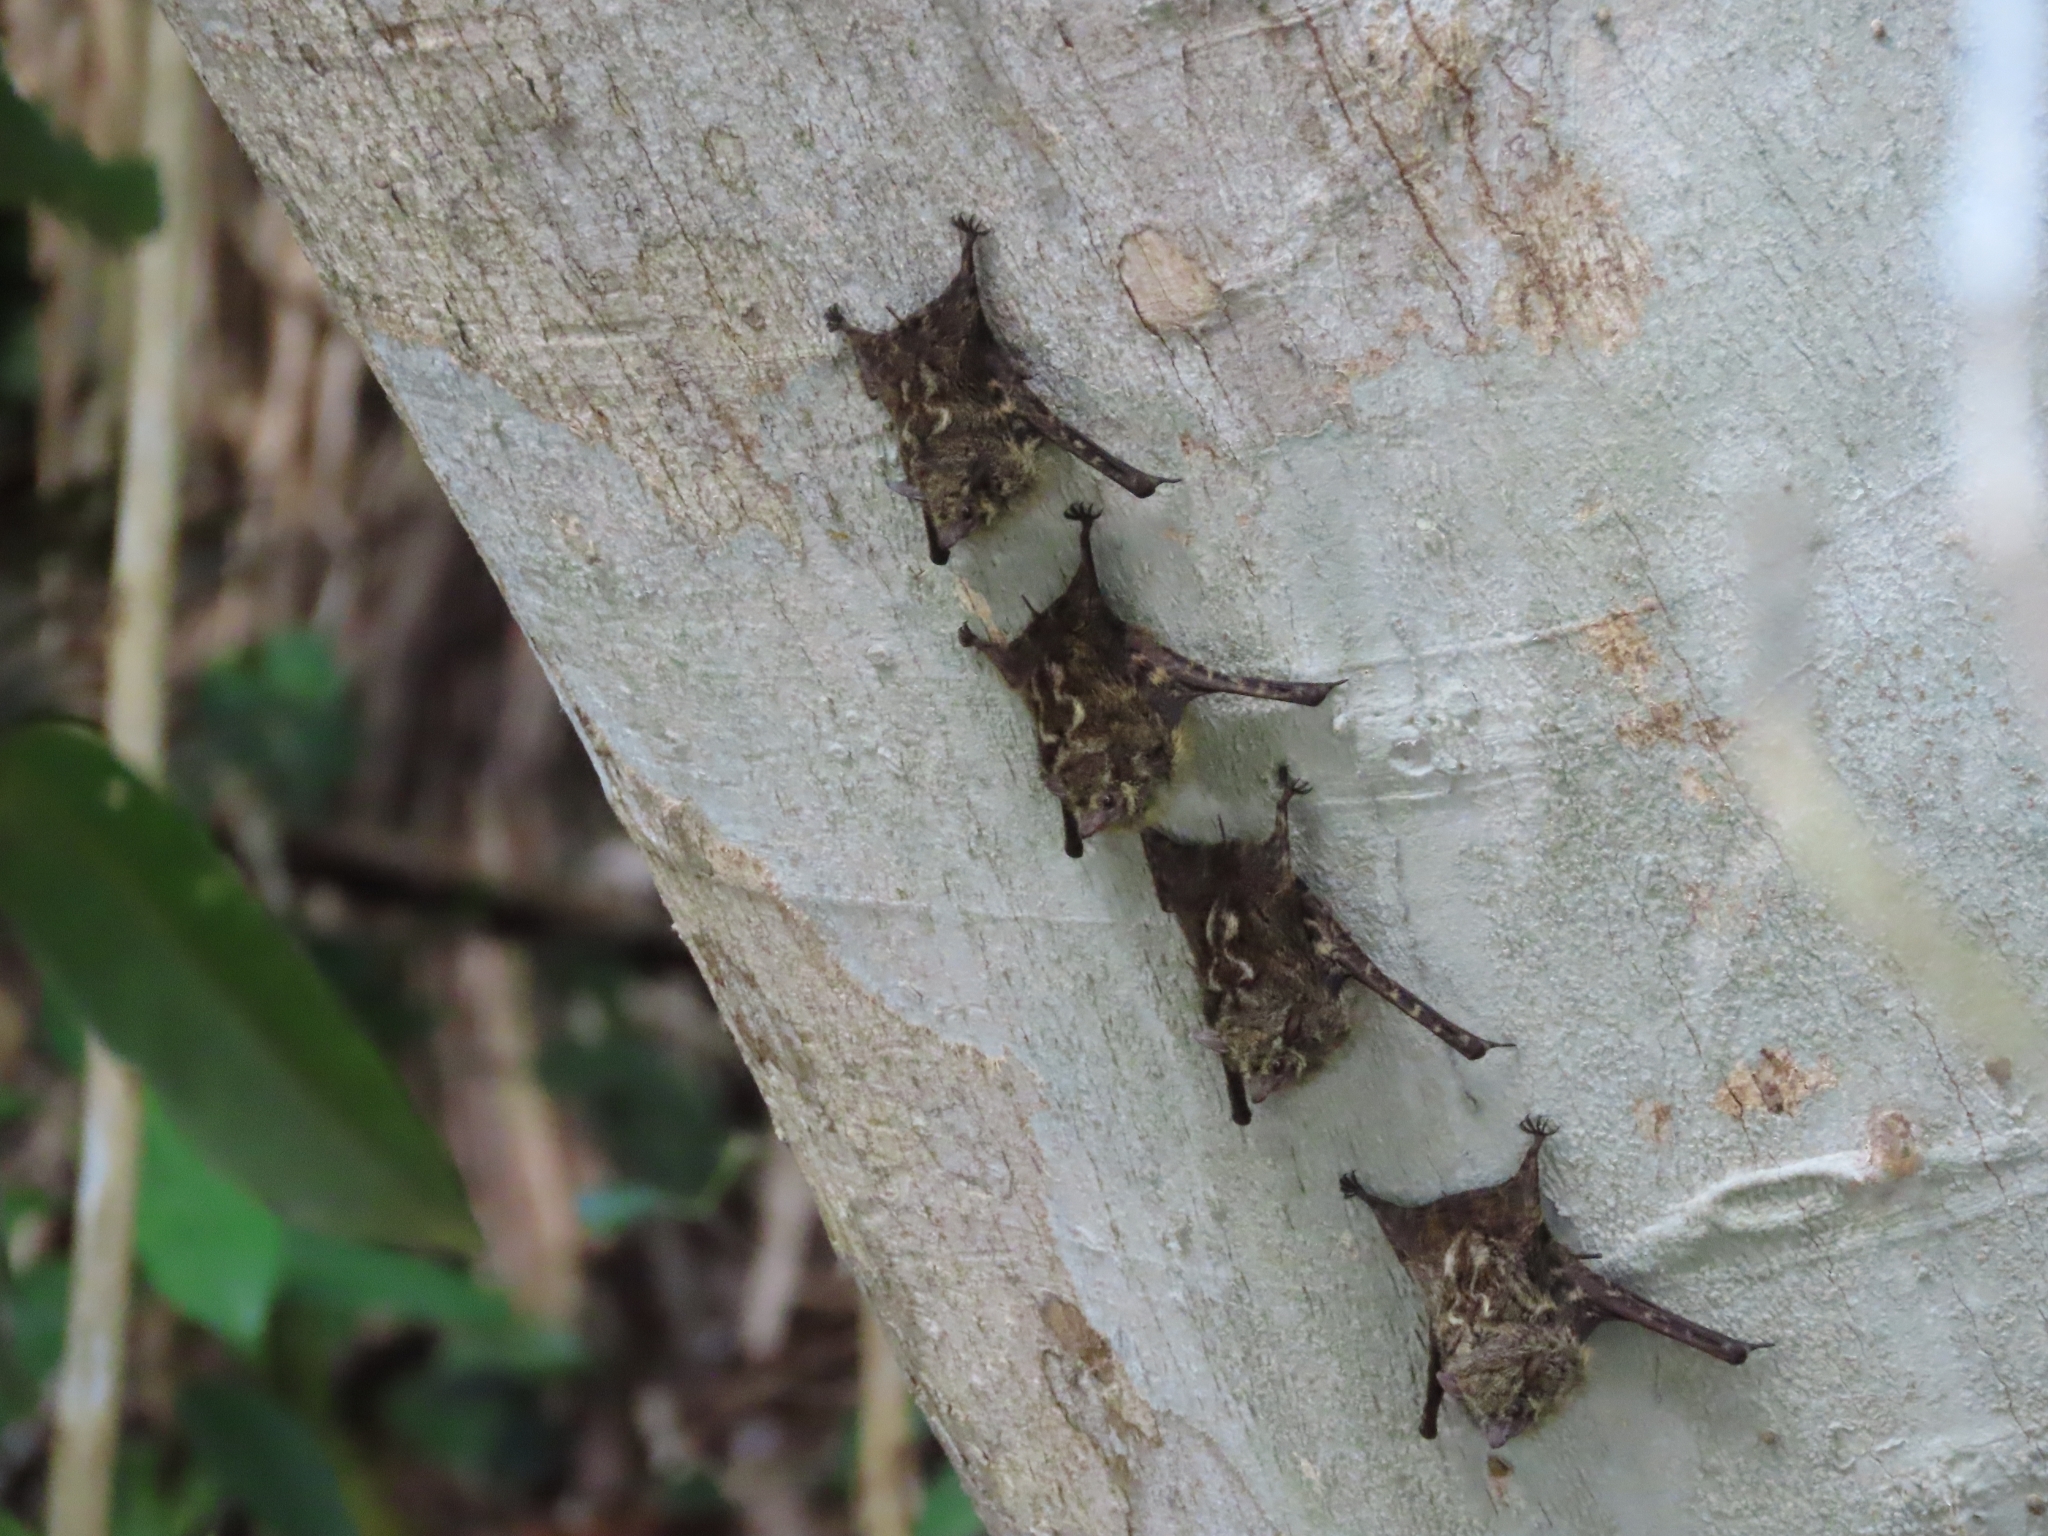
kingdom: Animalia
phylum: Chordata
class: Mammalia
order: Chiroptera
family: Emballonuridae
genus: Rhynchonycteris
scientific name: Rhynchonycteris naso
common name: Proboscis bat
